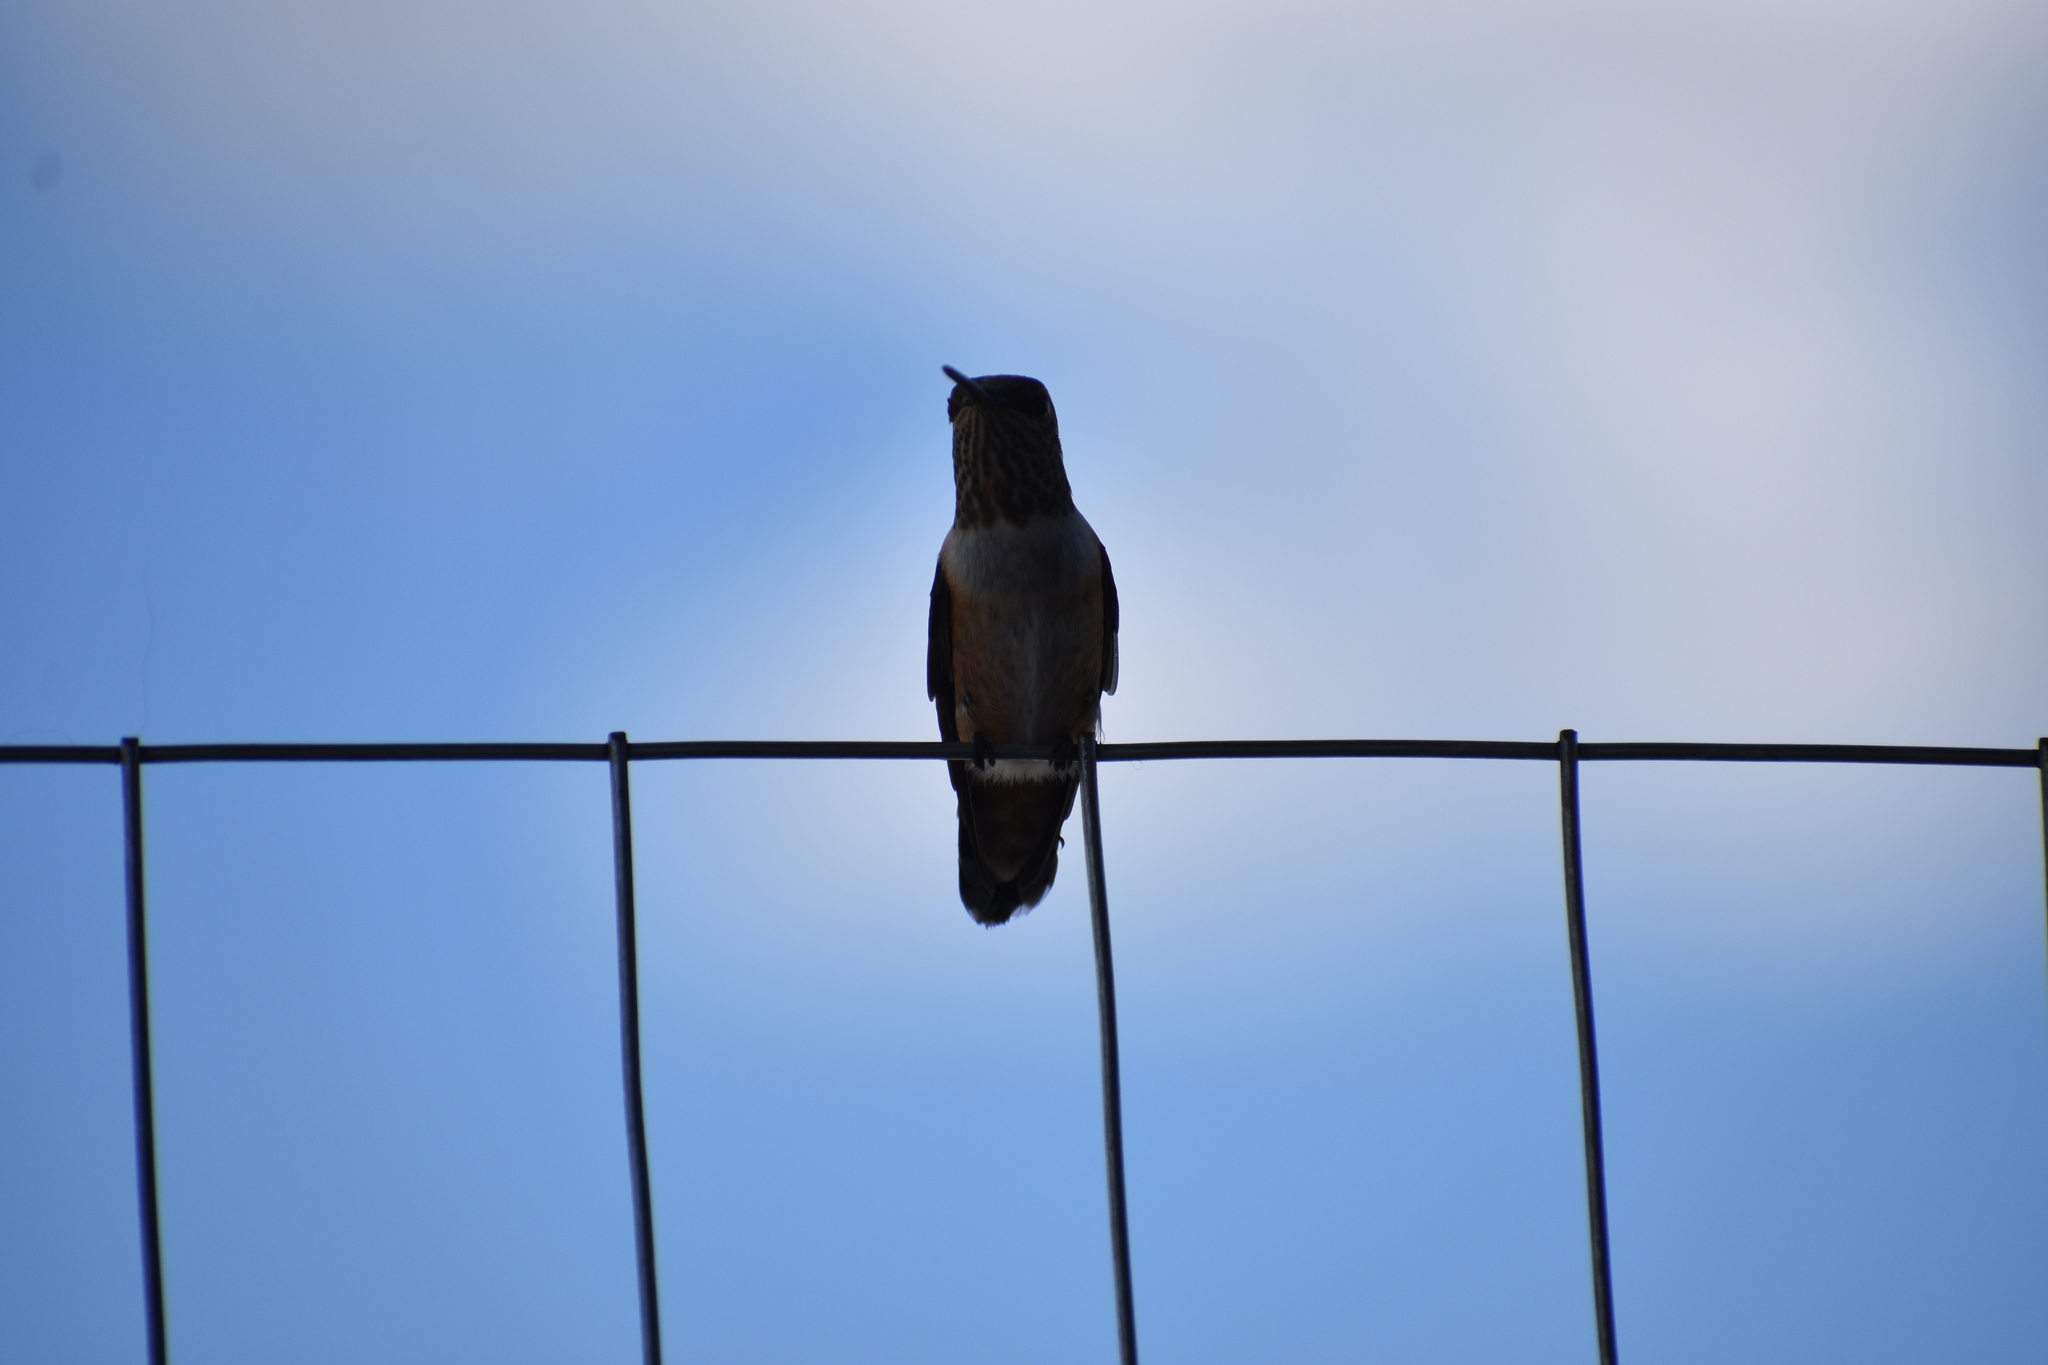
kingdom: Animalia
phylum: Chordata
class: Aves
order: Apodiformes
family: Trochilidae
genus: Selasphorus
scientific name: Selasphorus rufus
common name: Rufous hummingbird
